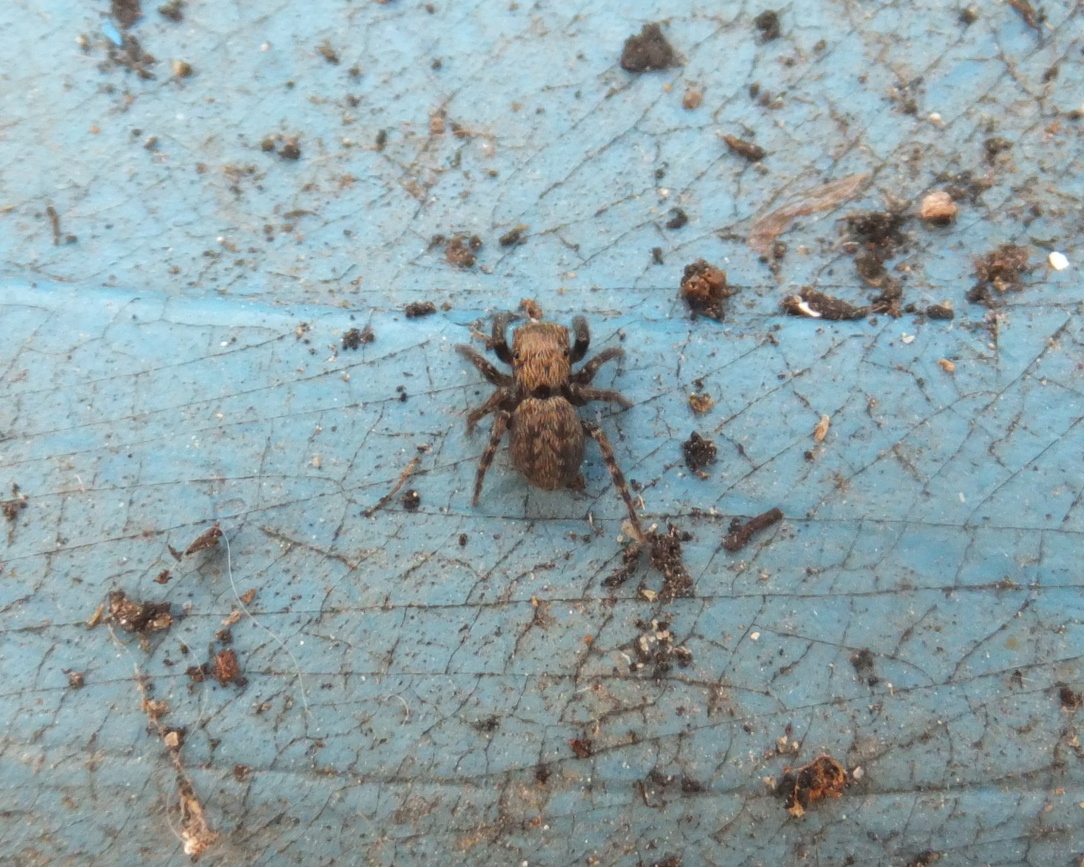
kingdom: Animalia
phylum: Arthropoda
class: Arachnida
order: Araneae
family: Salticidae
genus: Euophrys
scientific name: Euophrys rufibarbis
